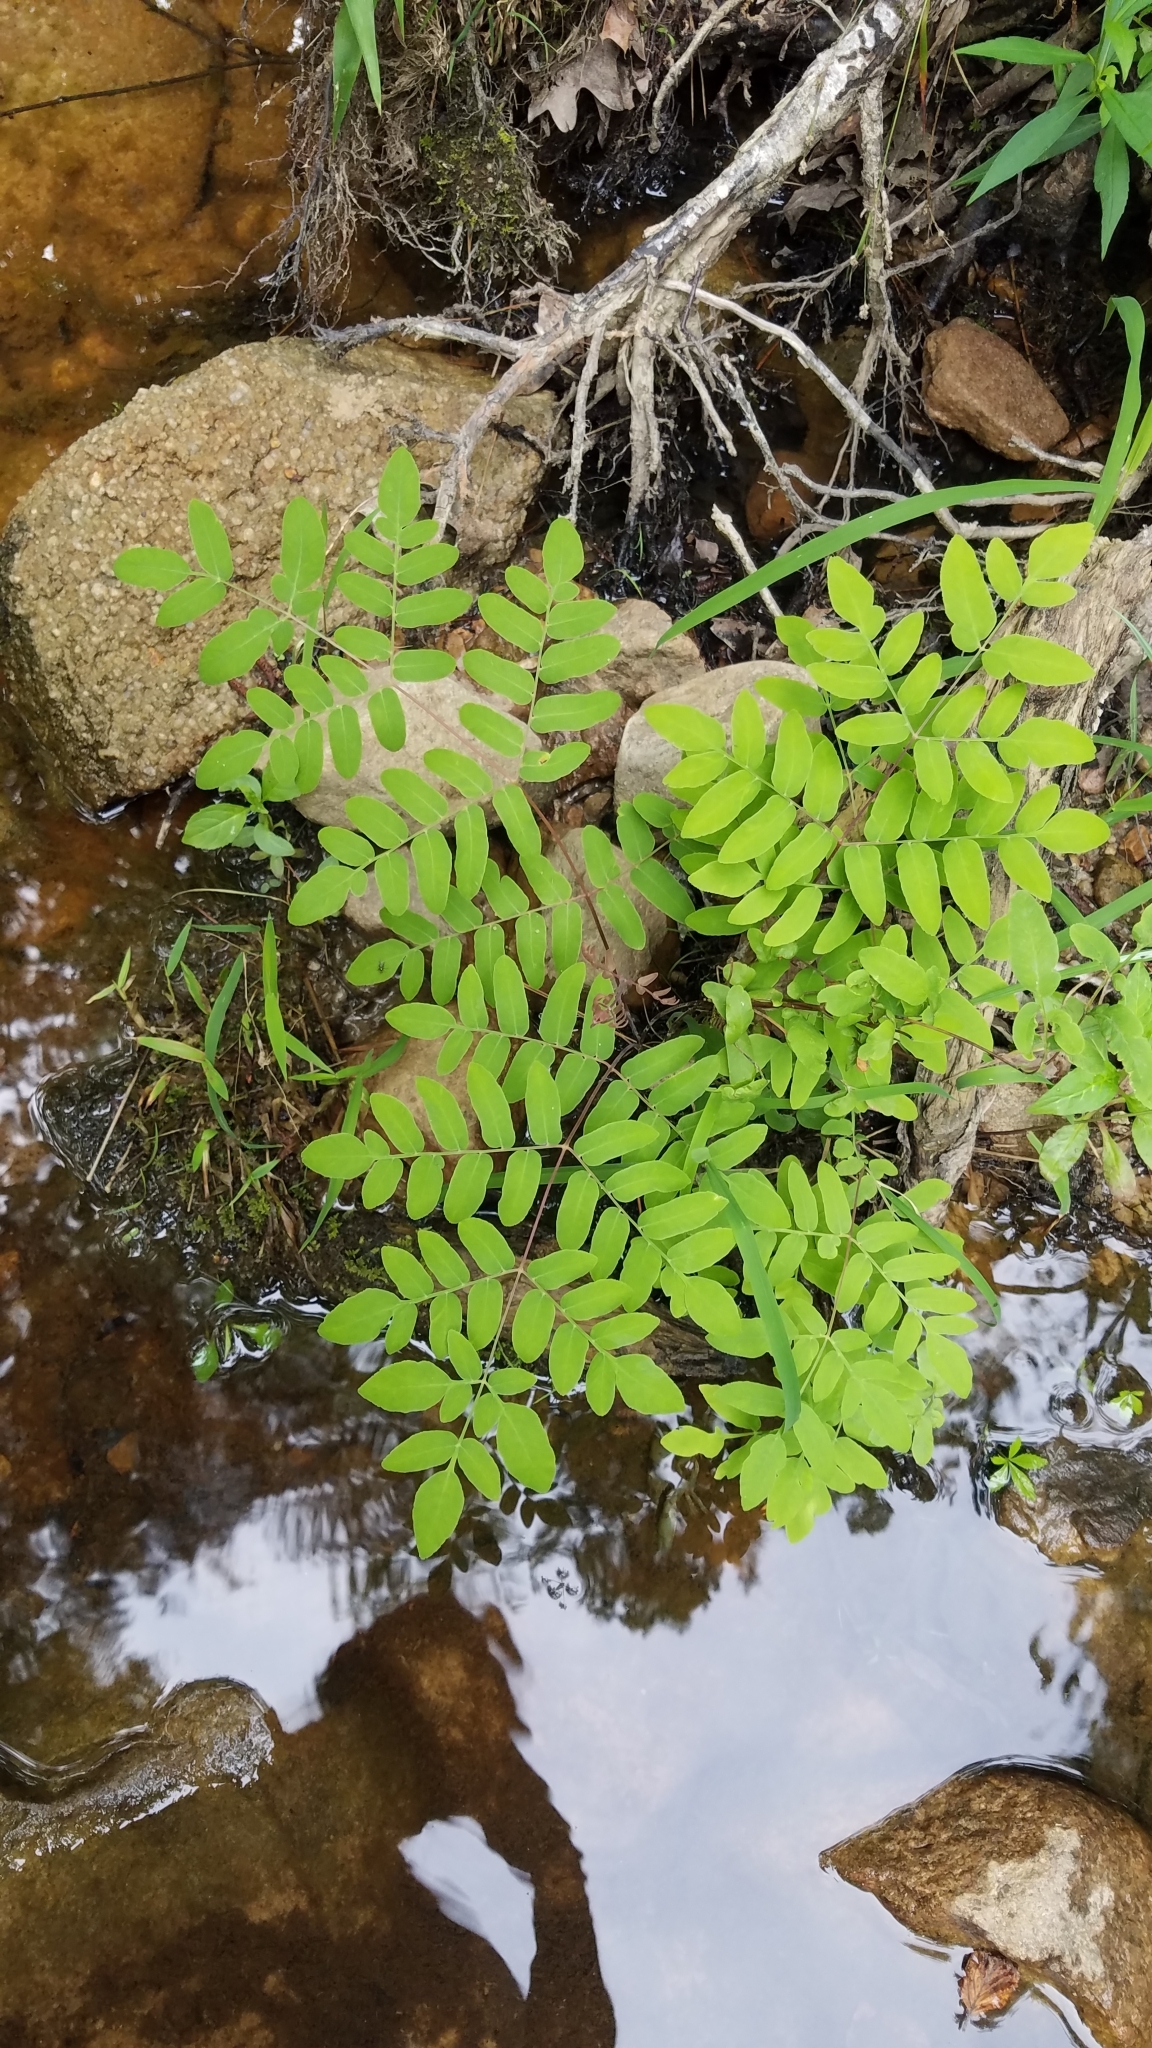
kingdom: Plantae
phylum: Tracheophyta
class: Polypodiopsida
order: Osmundales
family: Osmundaceae
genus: Osmunda
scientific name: Osmunda spectabilis
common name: American royal fern
